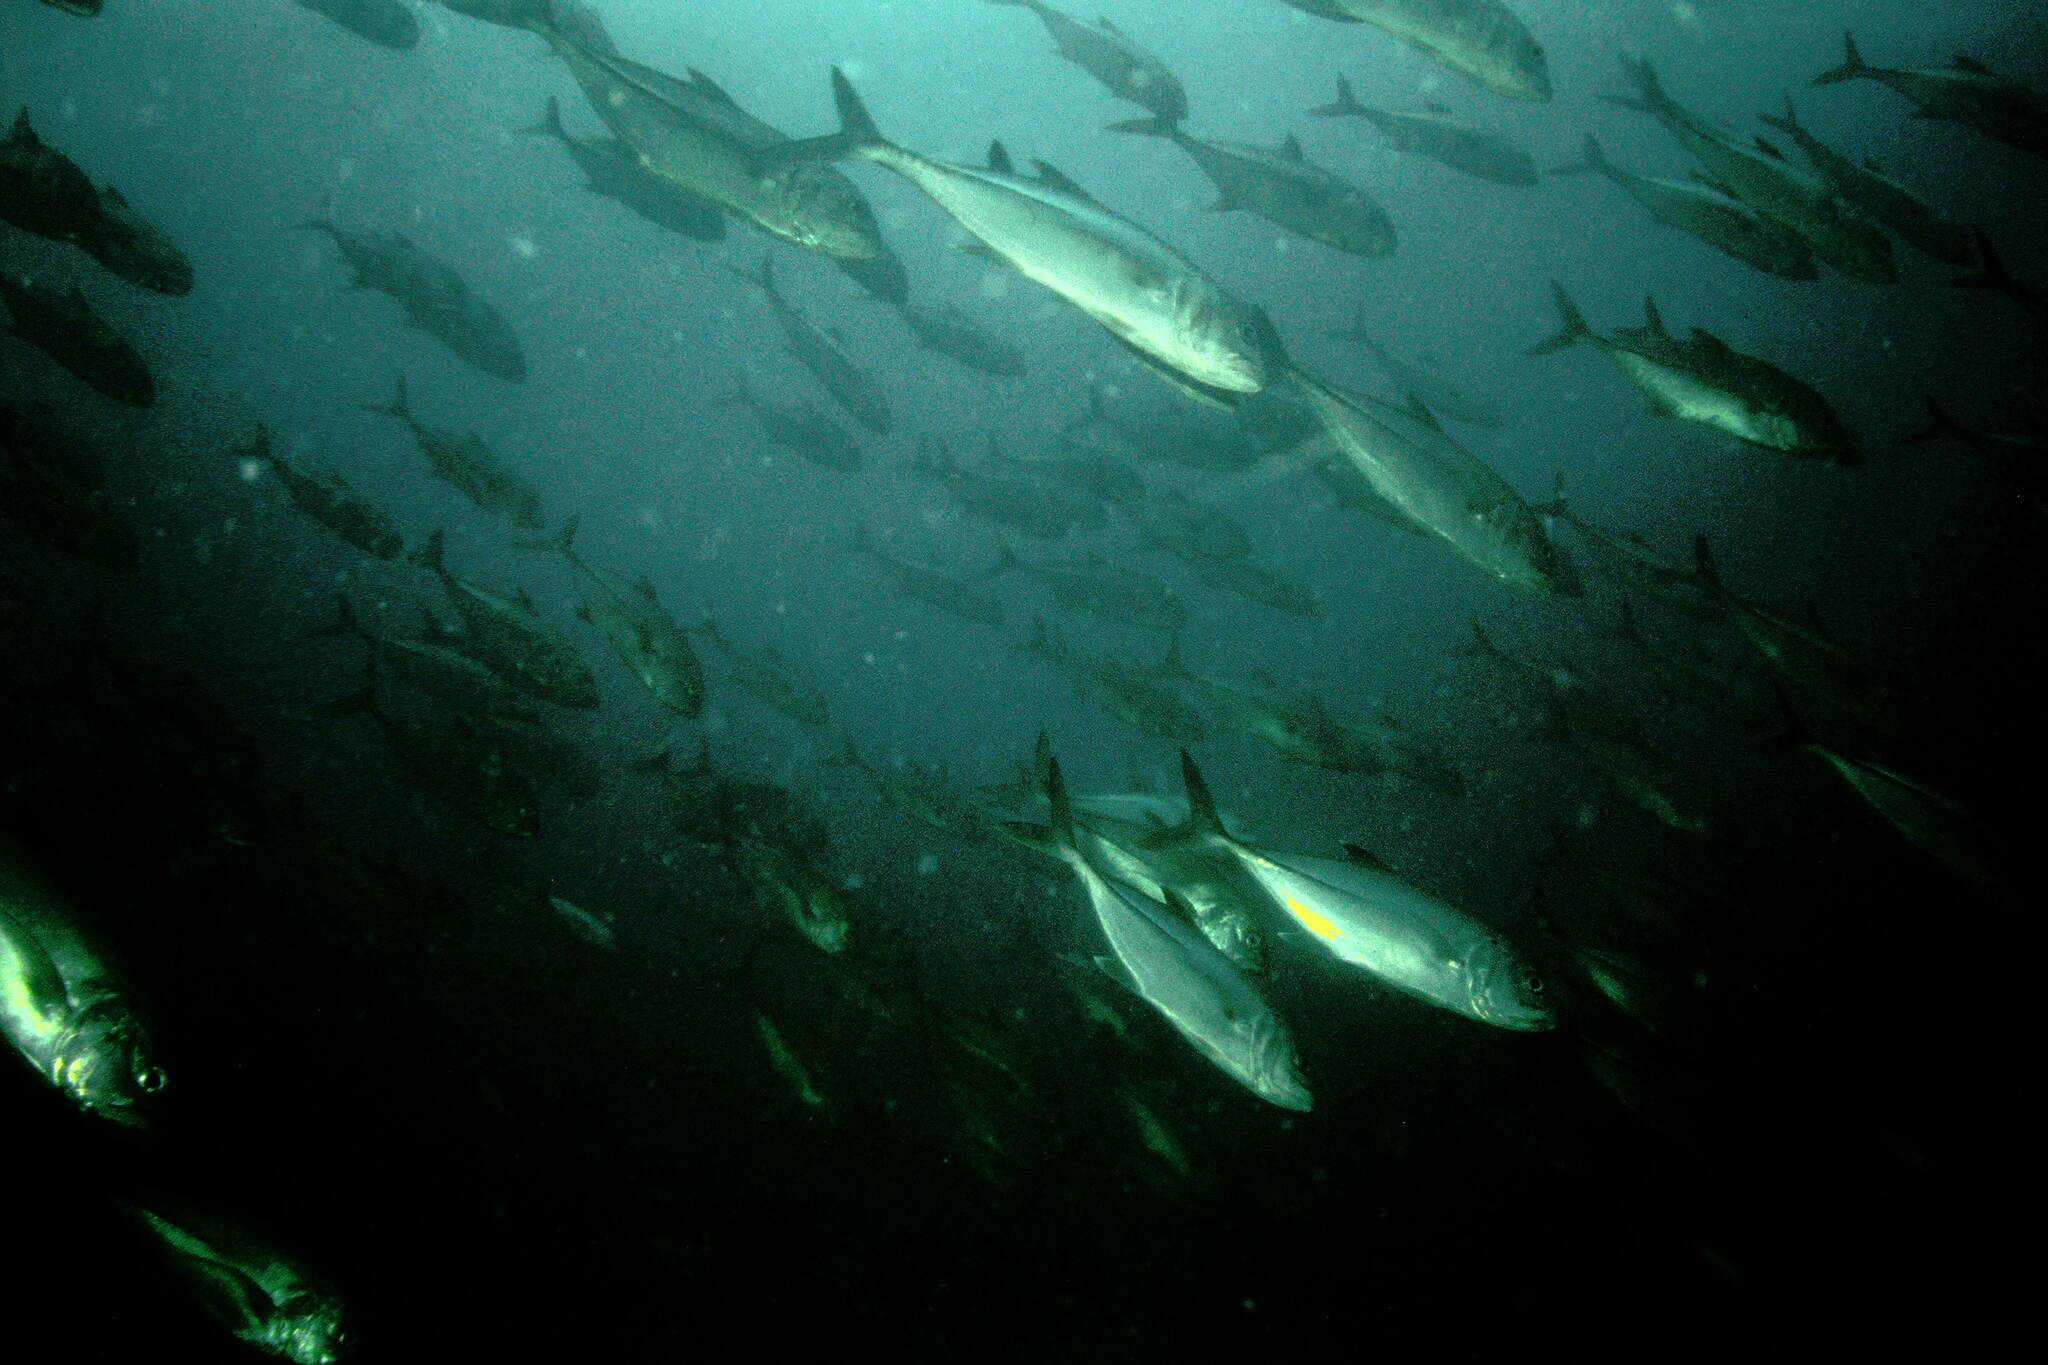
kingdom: Animalia
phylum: Chordata
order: Perciformes
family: Carangidae
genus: Caranx
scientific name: Caranx sexfasciatus
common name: Bigeye trevally
